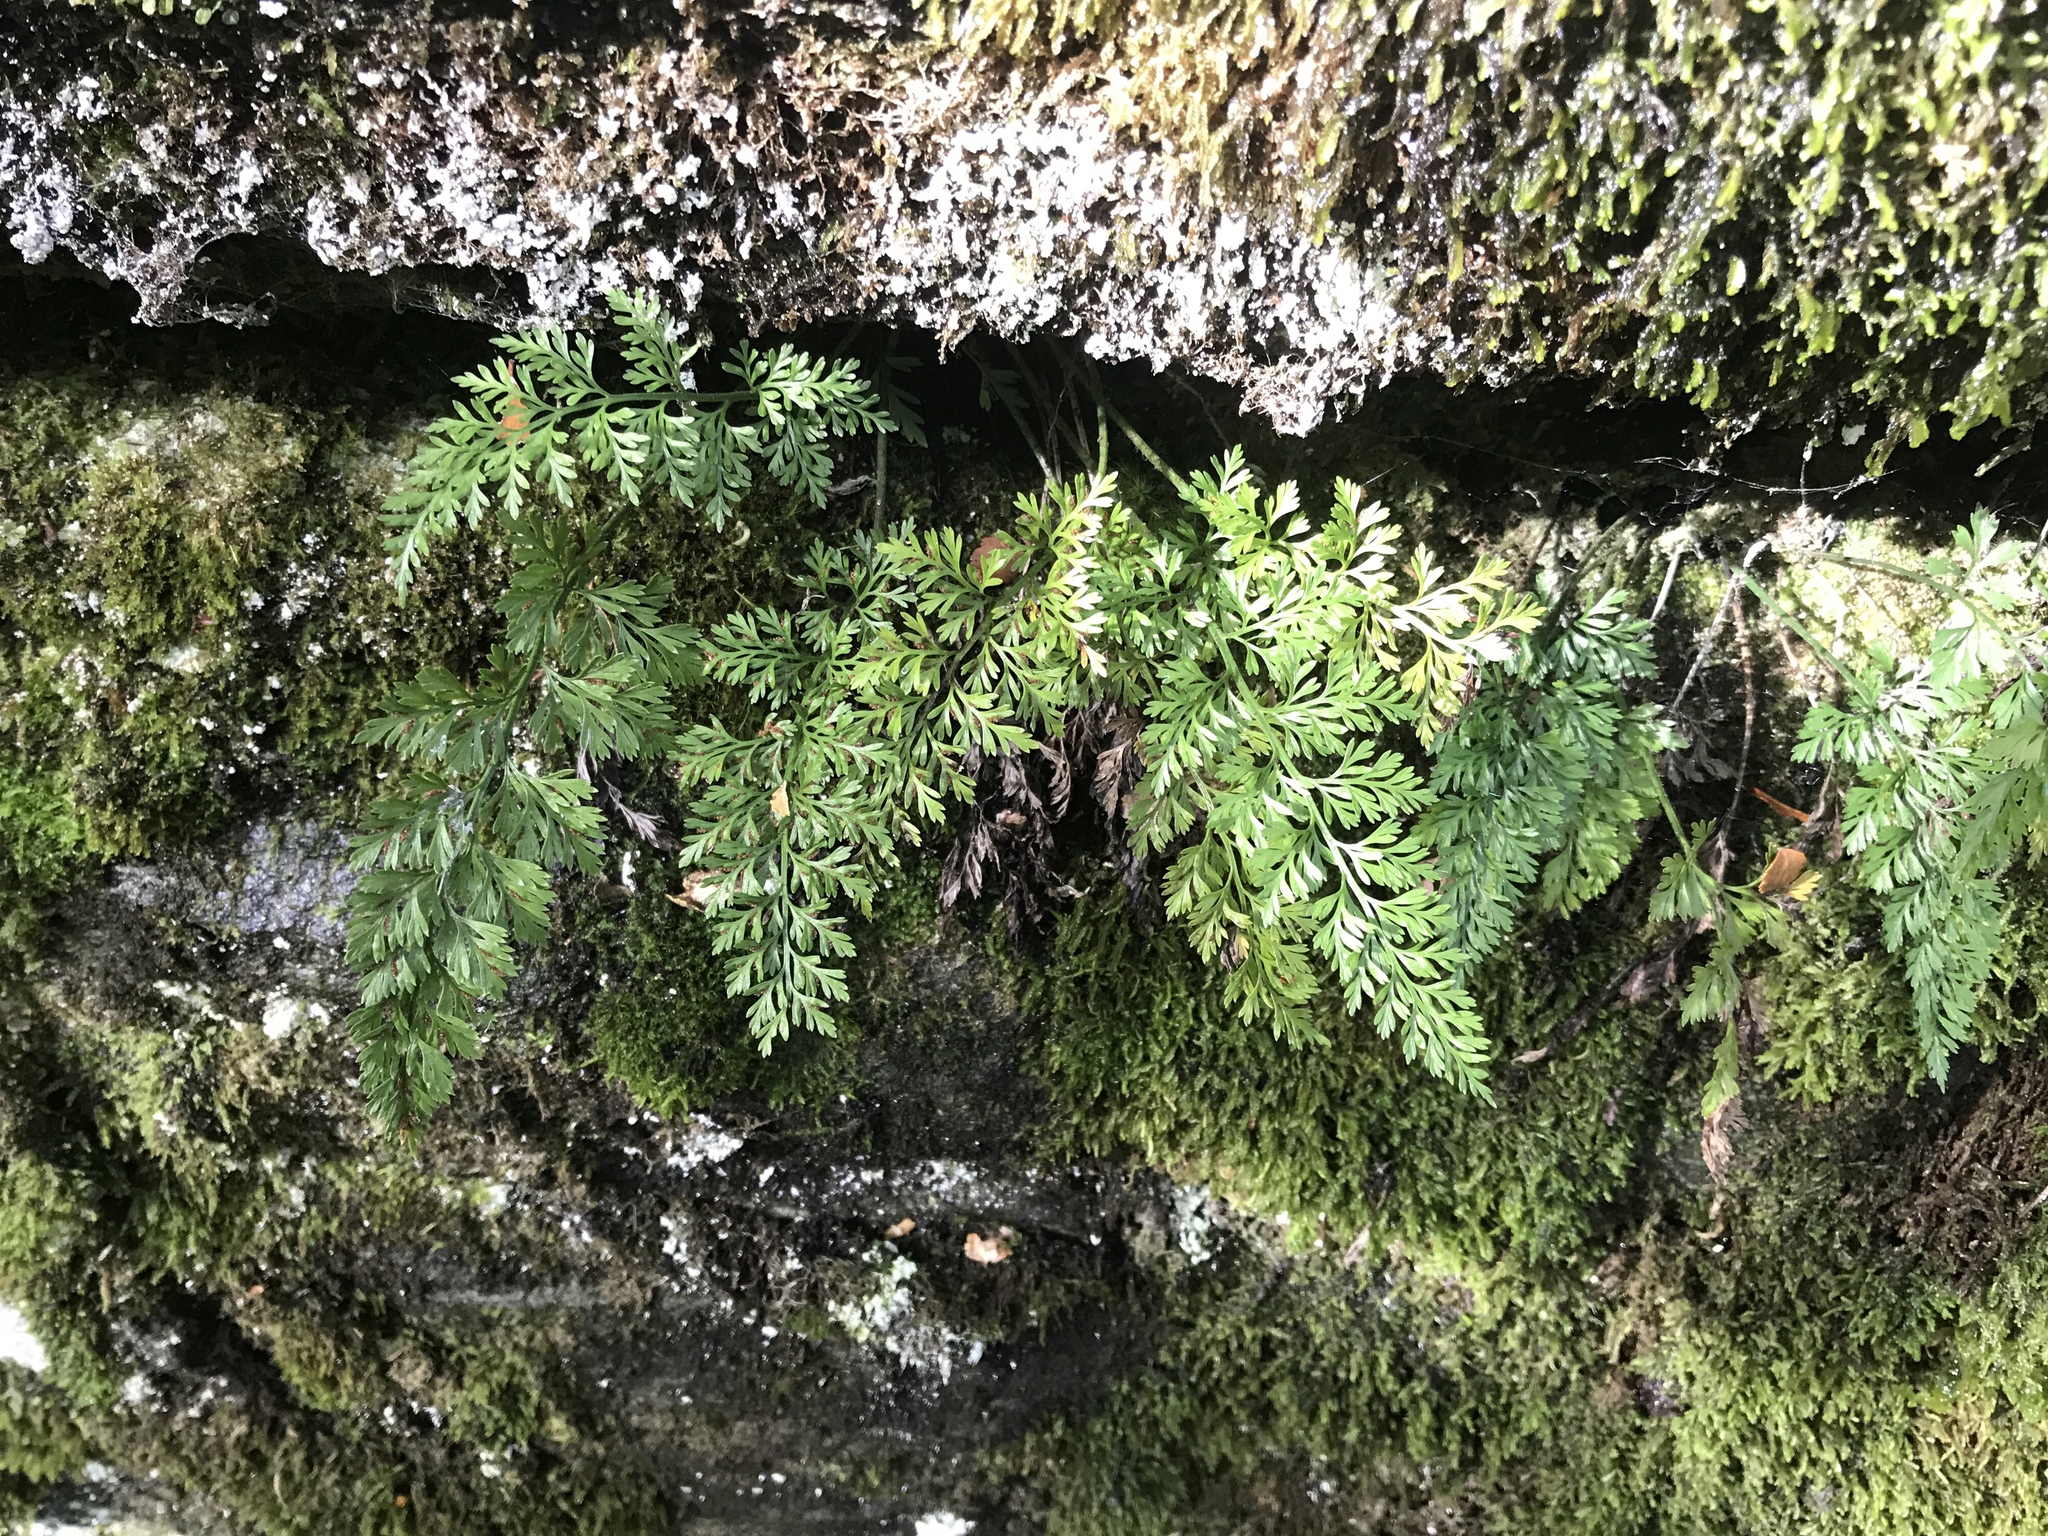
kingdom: Plantae
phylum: Tracheophyta
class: Polypodiopsida
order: Polypodiales
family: Aspleniaceae
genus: Asplenium
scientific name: Asplenium richardii
